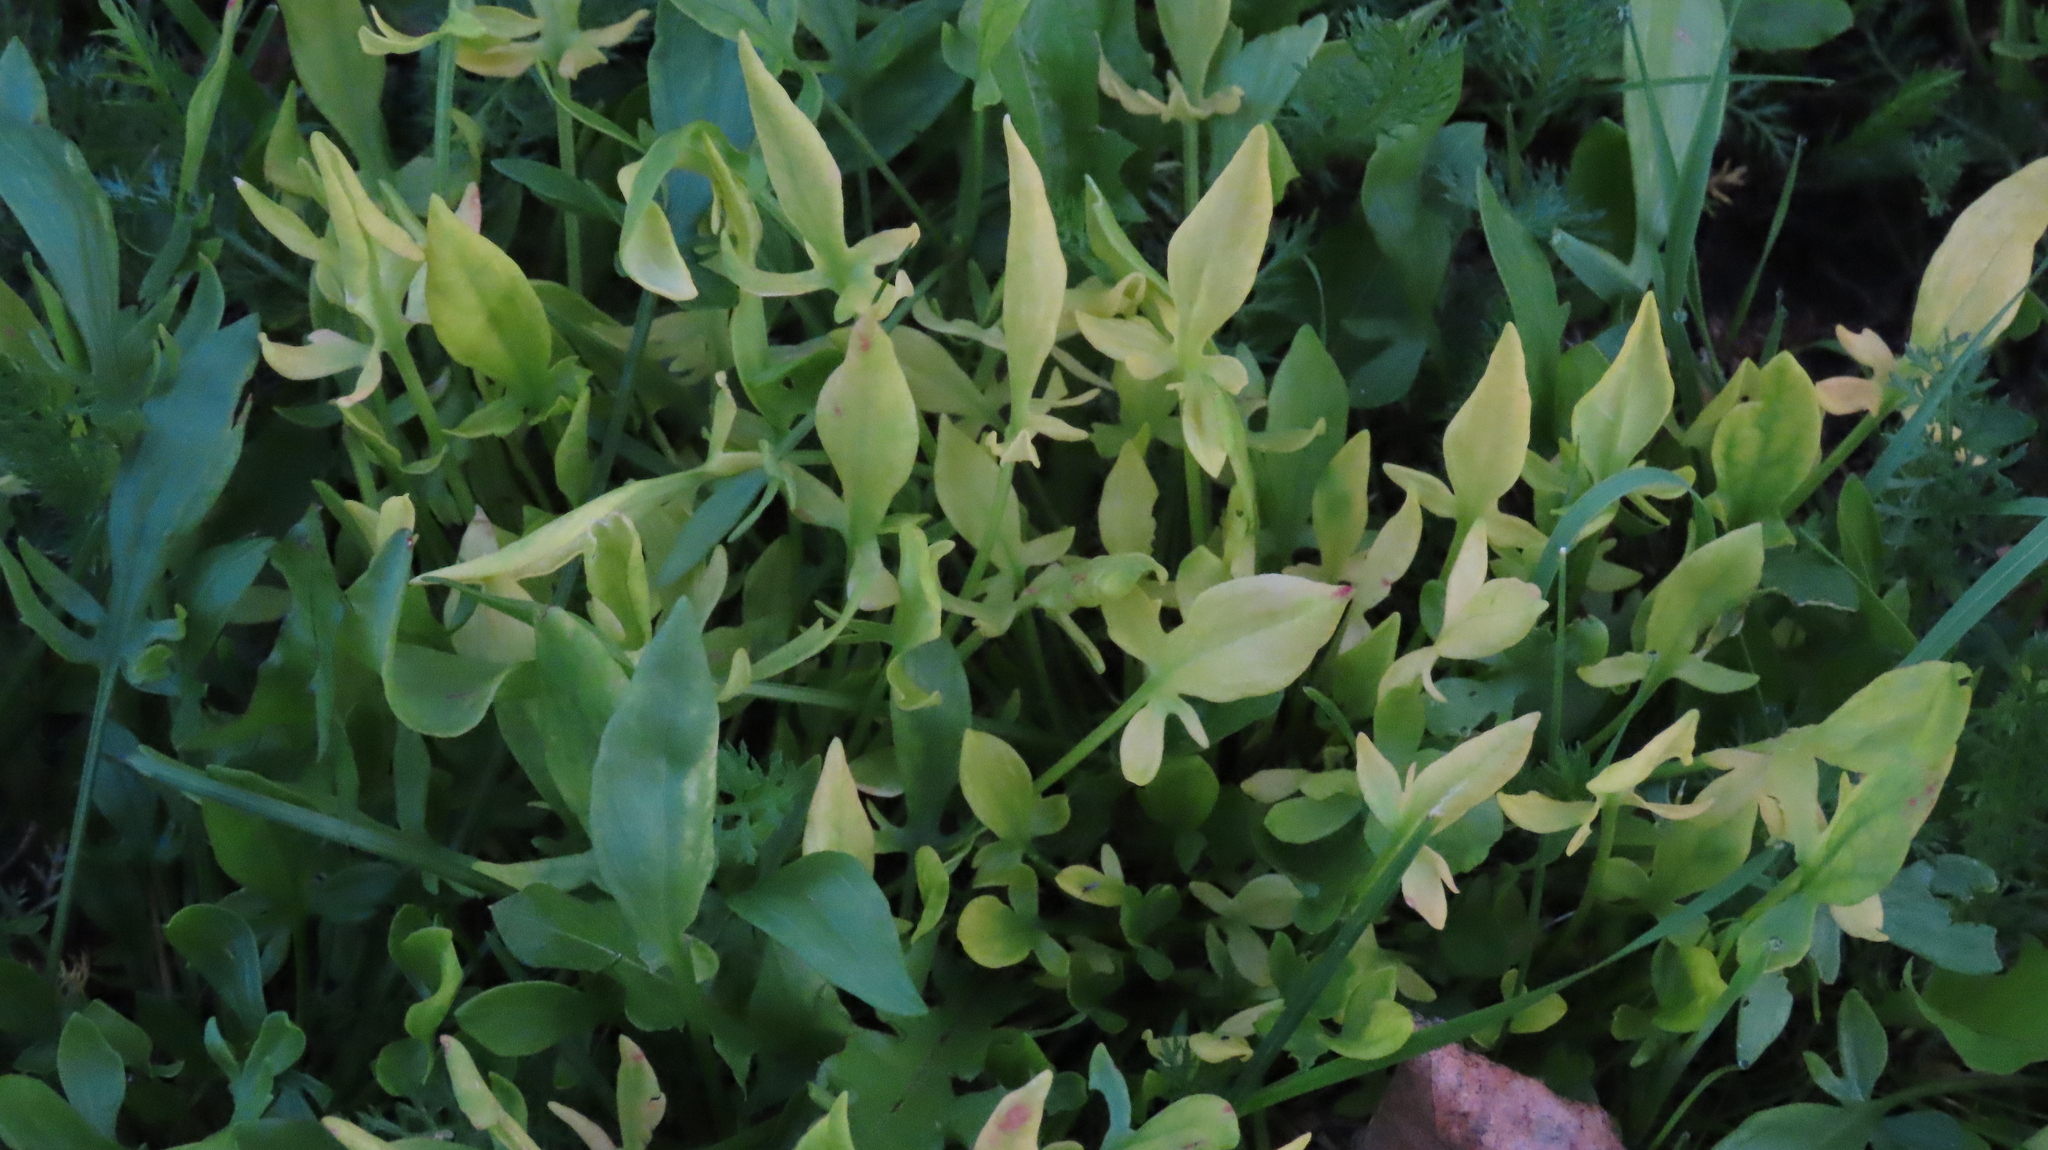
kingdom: Plantae
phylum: Tracheophyta
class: Magnoliopsida
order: Caryophyllales
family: Polygonaceae
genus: Rumex
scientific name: Rumex acetosella
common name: Common sheep sorrel
